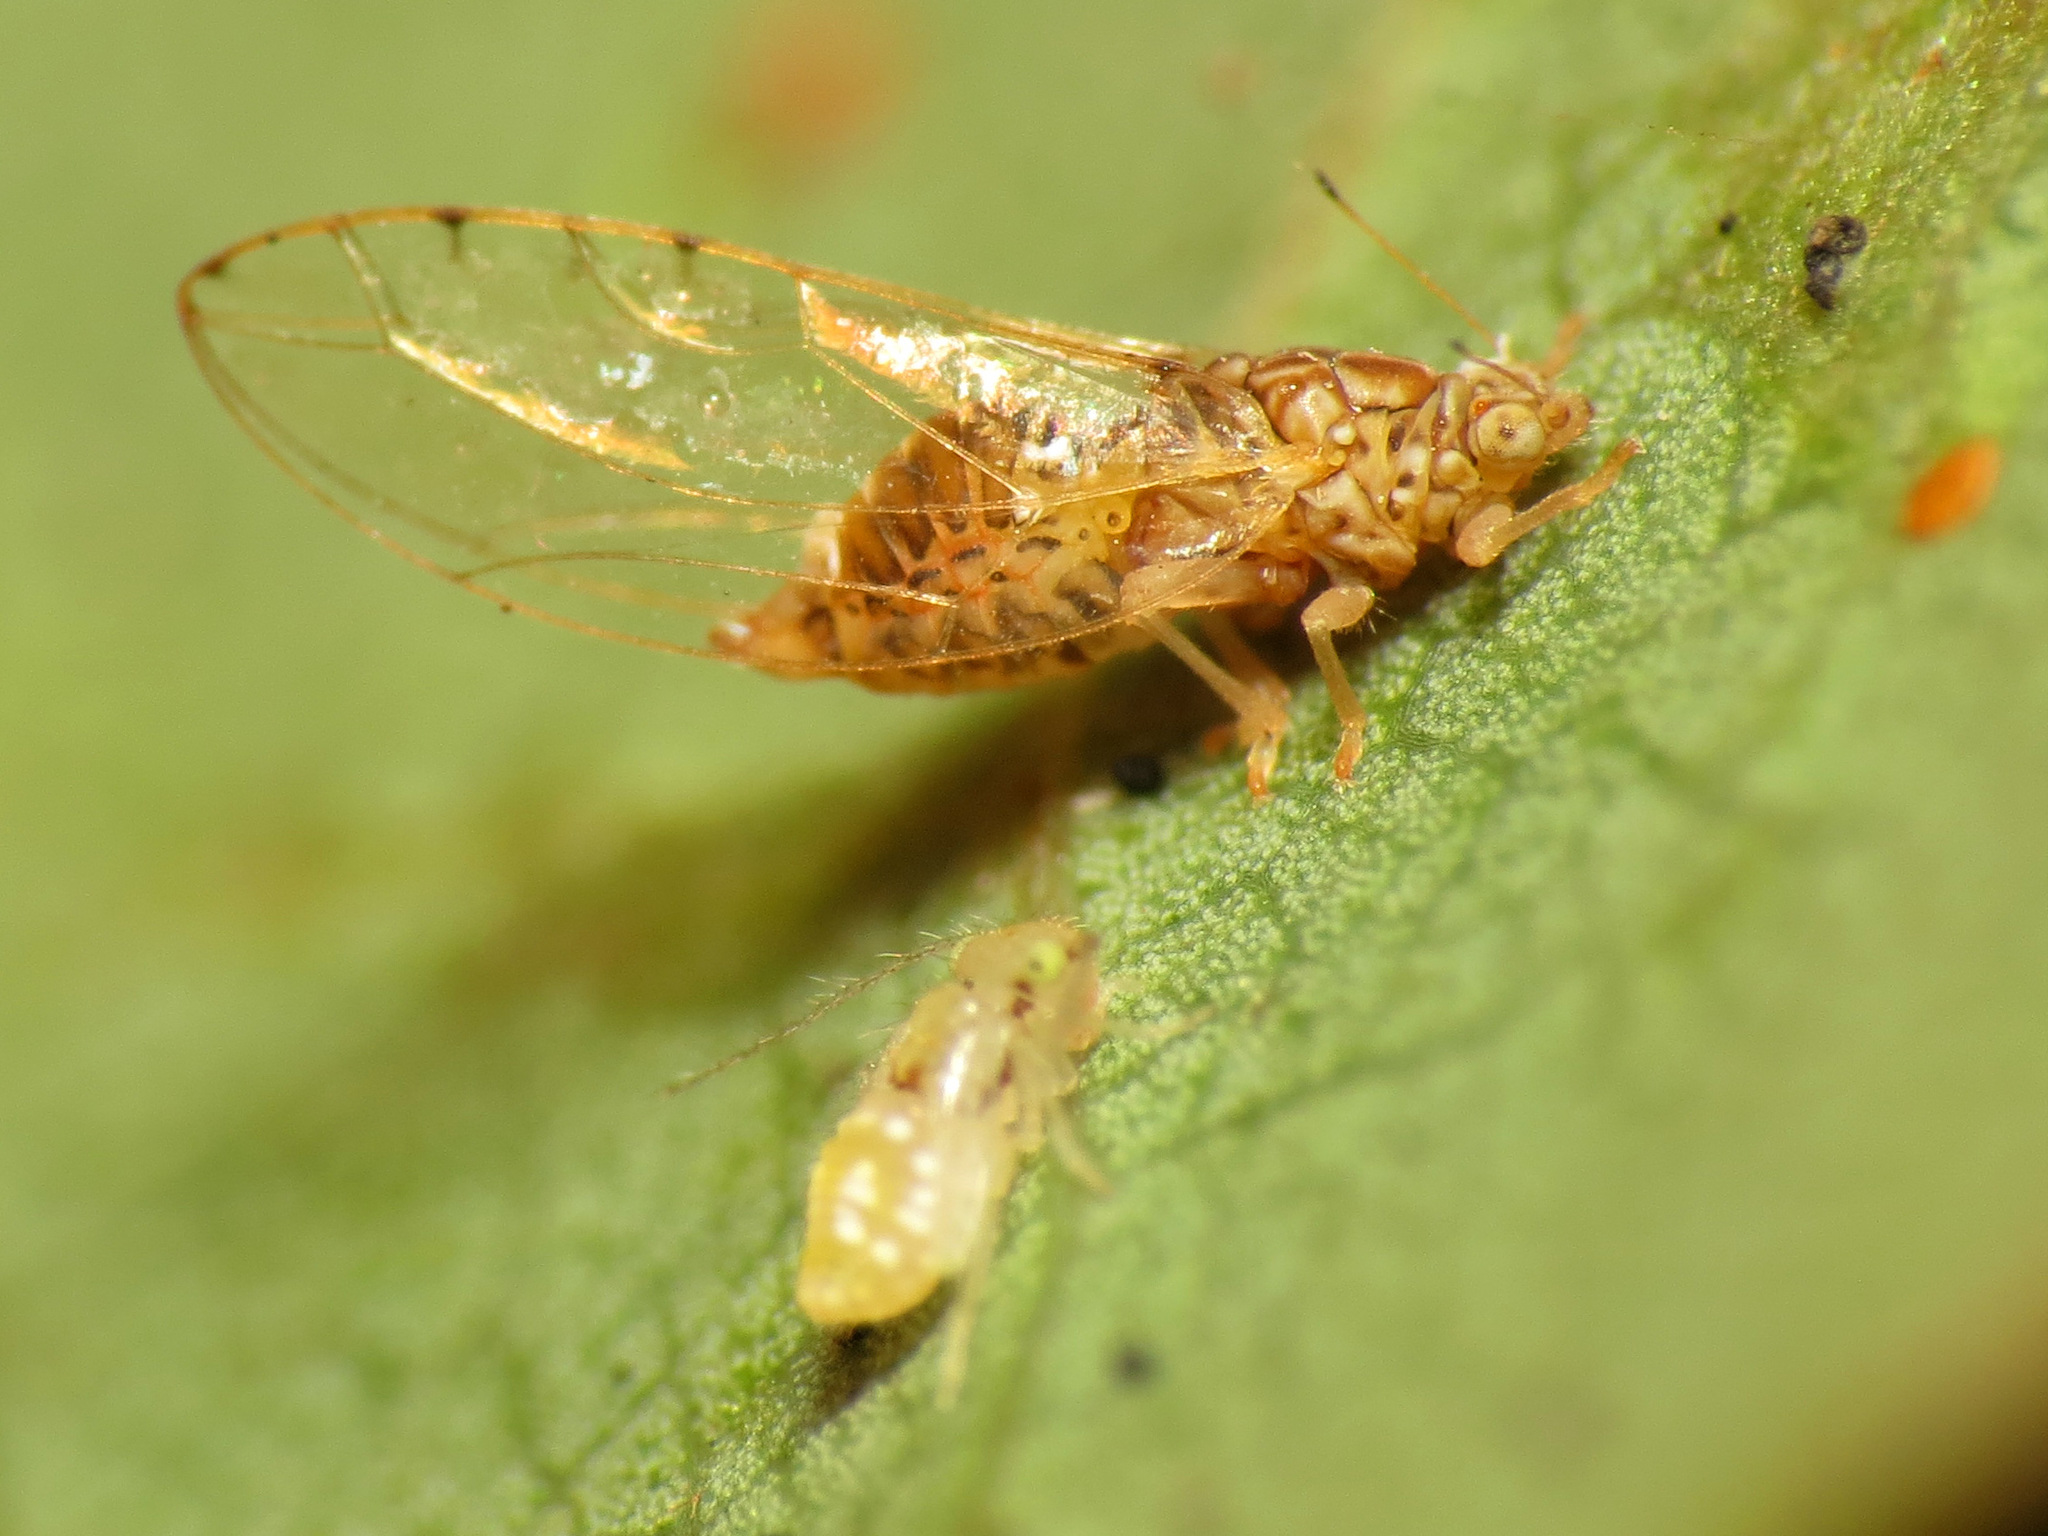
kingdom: Animalia
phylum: Arthropoda
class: Insecta
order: Hemiptera
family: Triozidae
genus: Lauritrioza
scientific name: Lauritrioza alacris
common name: Laurel psyllid
